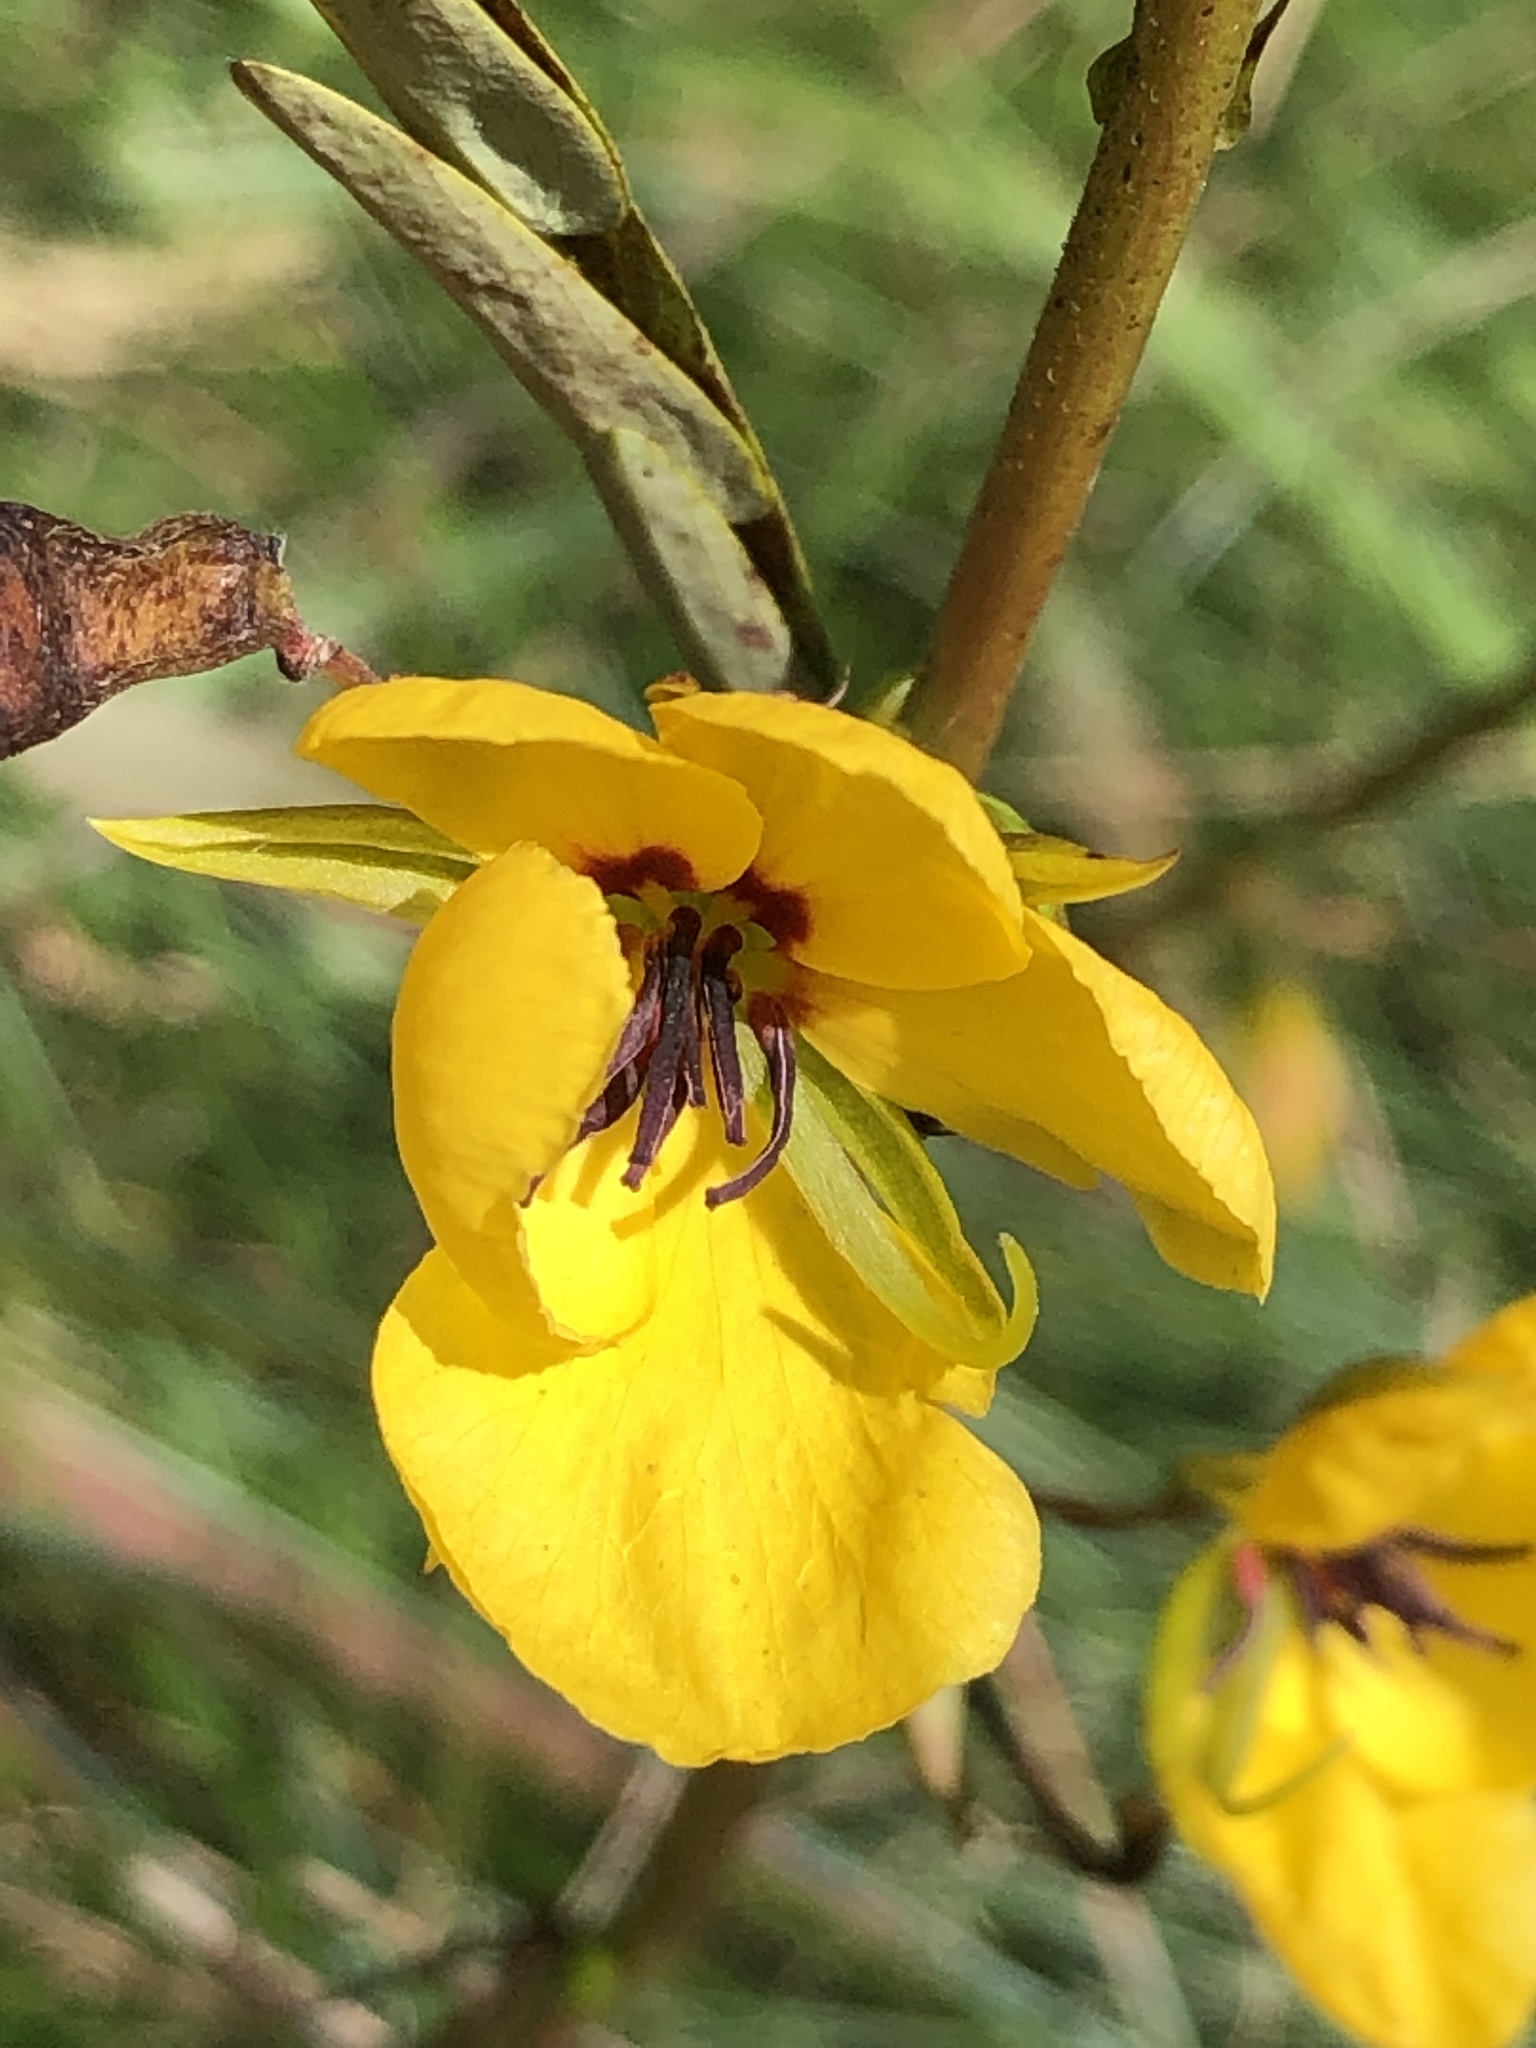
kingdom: Plantae
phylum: Tracheophyta
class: Magnoliopsida
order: Fabales
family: Fabaceae
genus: Chamaecrista
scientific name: Chamaecrista fasciculata
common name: Golden cassia
